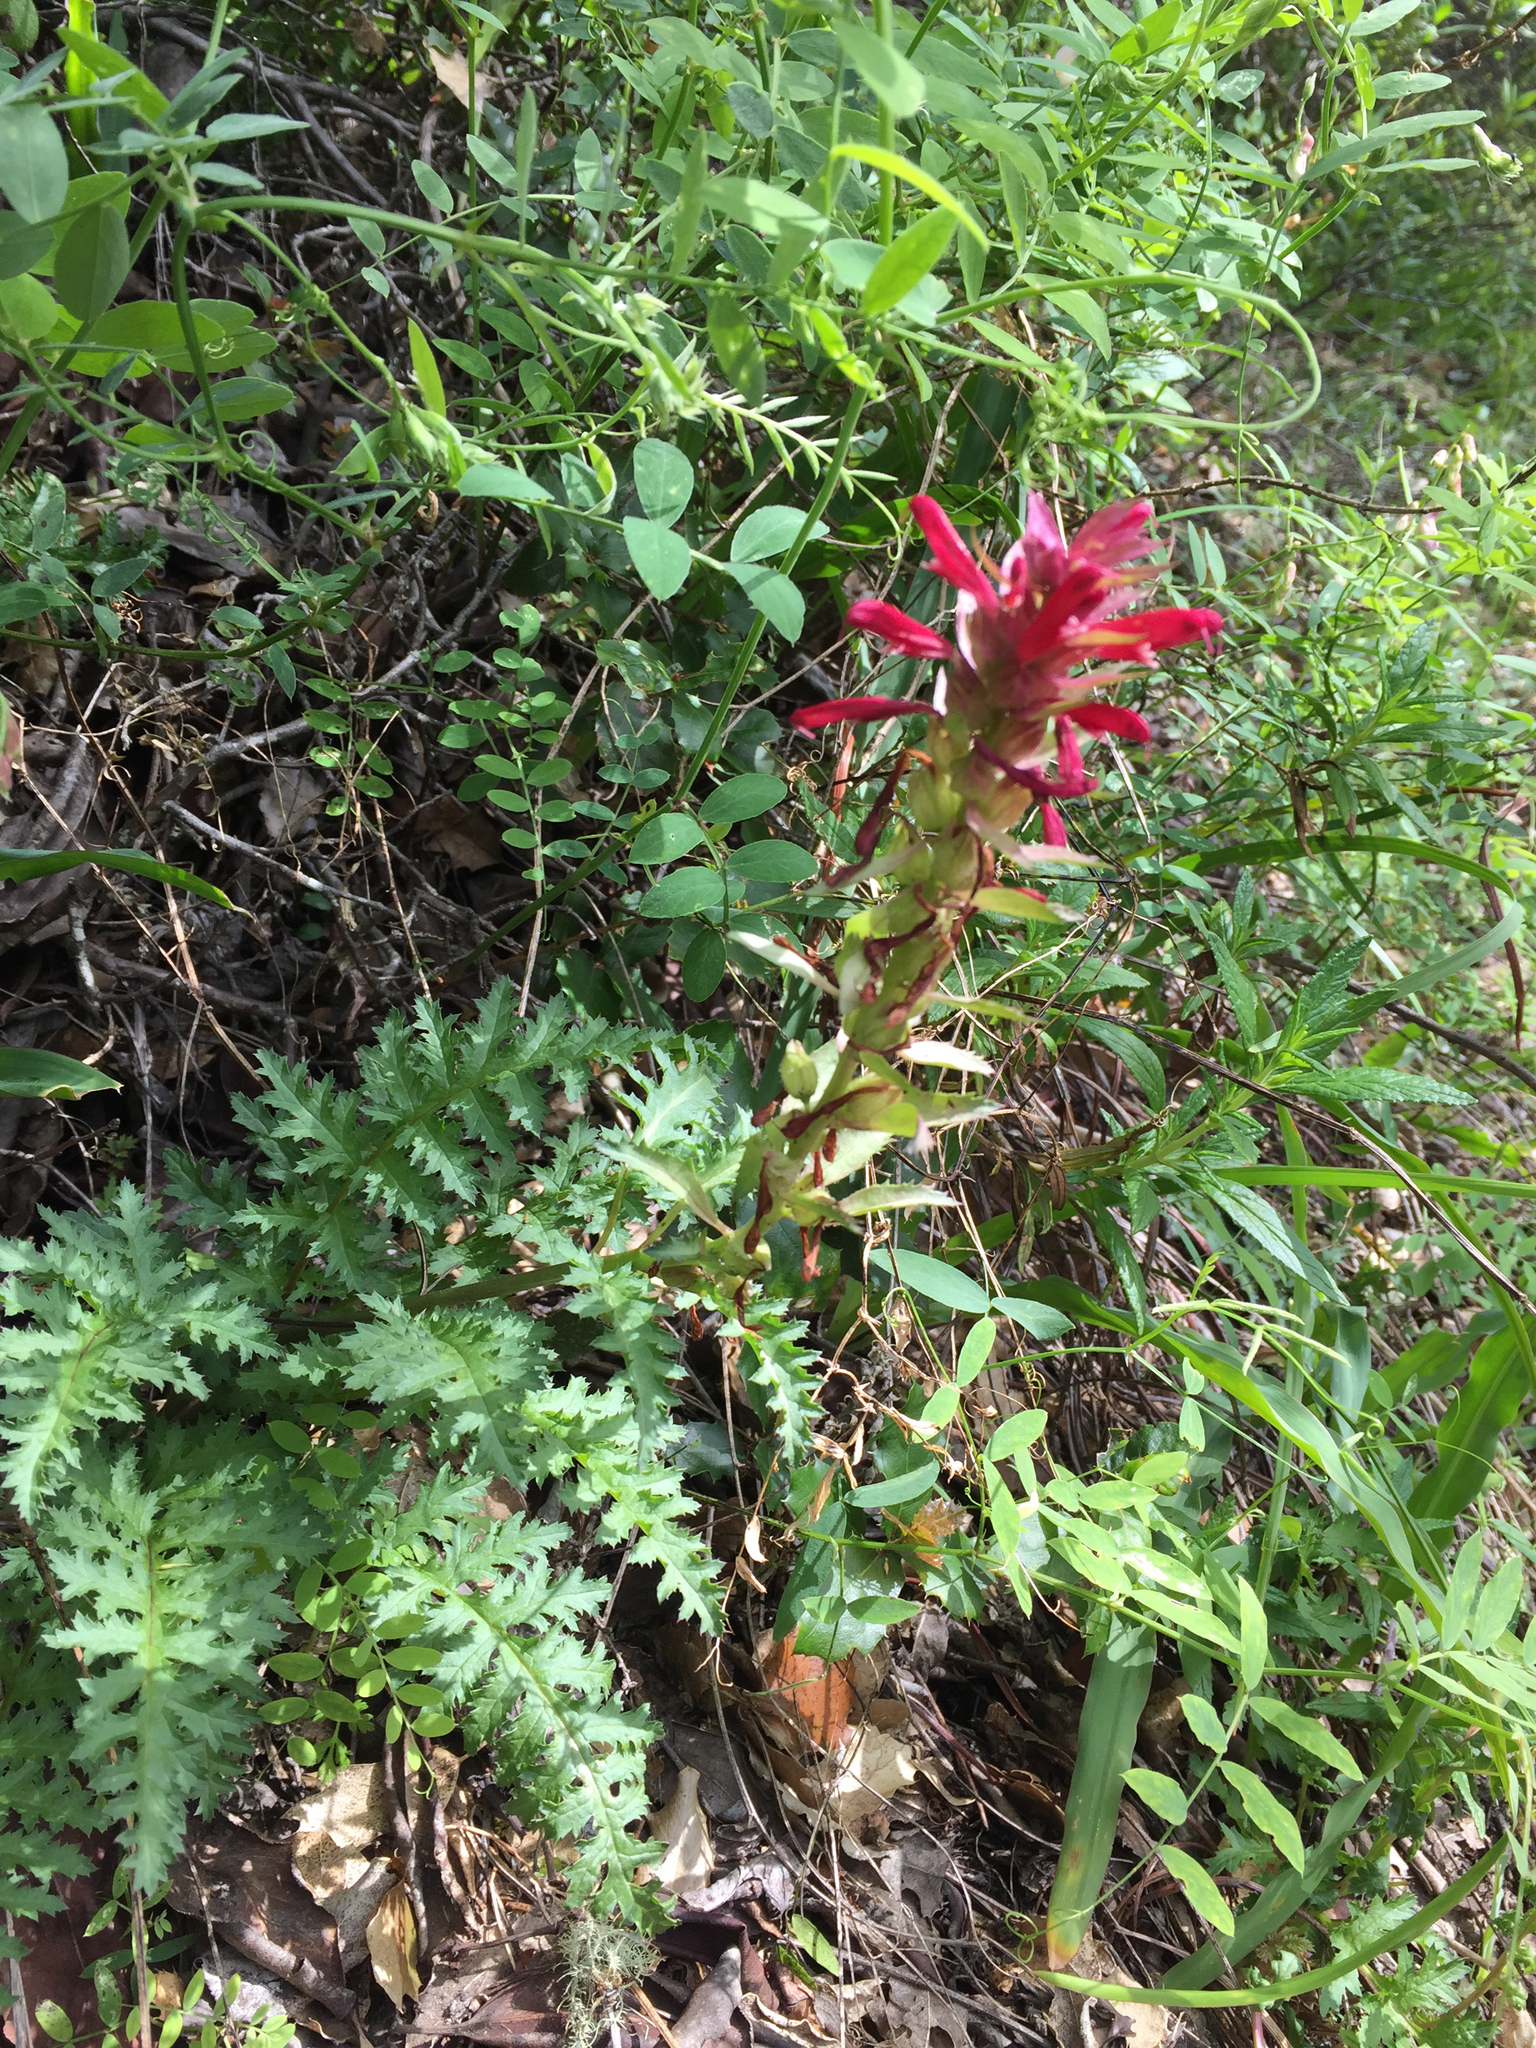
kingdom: Plantae
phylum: Tracheophyta
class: Magnoliopsida
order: Lamiales
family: Orobanchaceae
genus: Pedicularis
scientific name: Pedicularis densiflora
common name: Indian warrior
